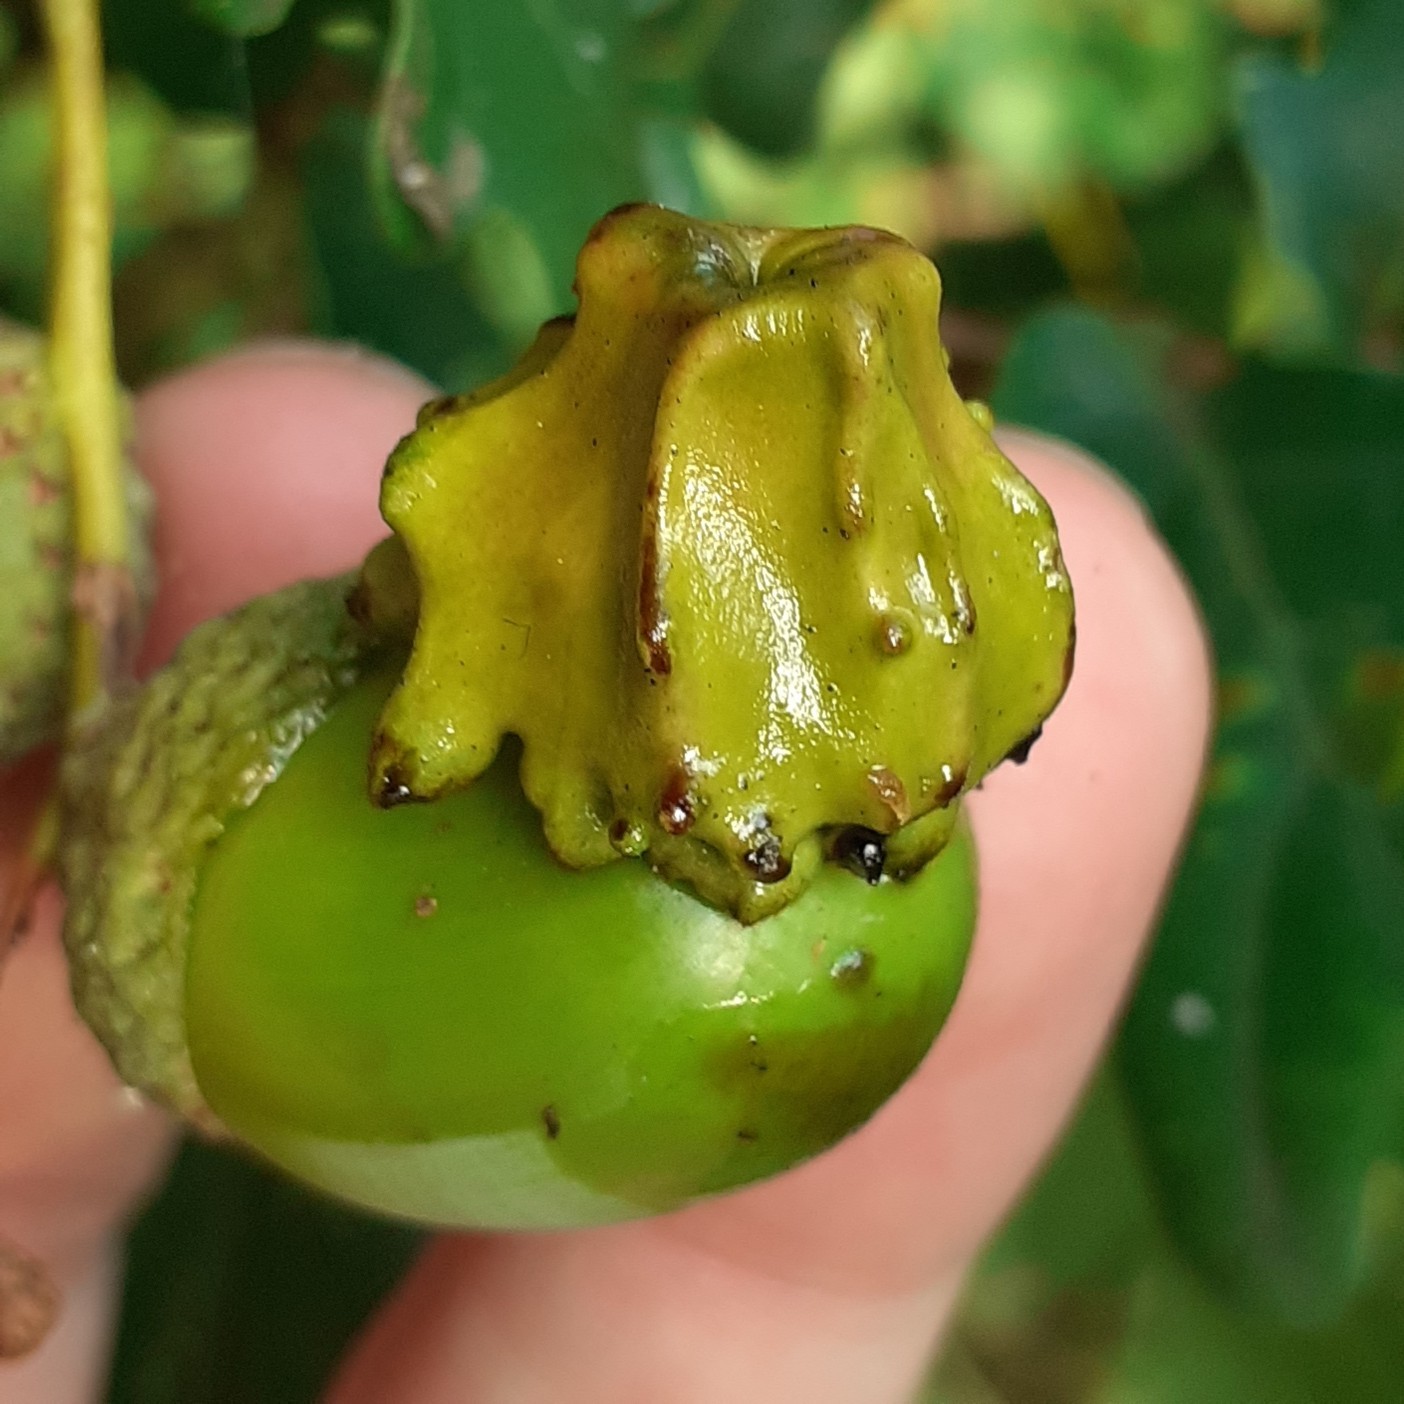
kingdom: Animalia
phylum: Arthropoda
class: Insecta
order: Hymenoptera
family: Cynipidae
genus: Andricus
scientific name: Andricus quercuscalicis
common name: Knopper gall
